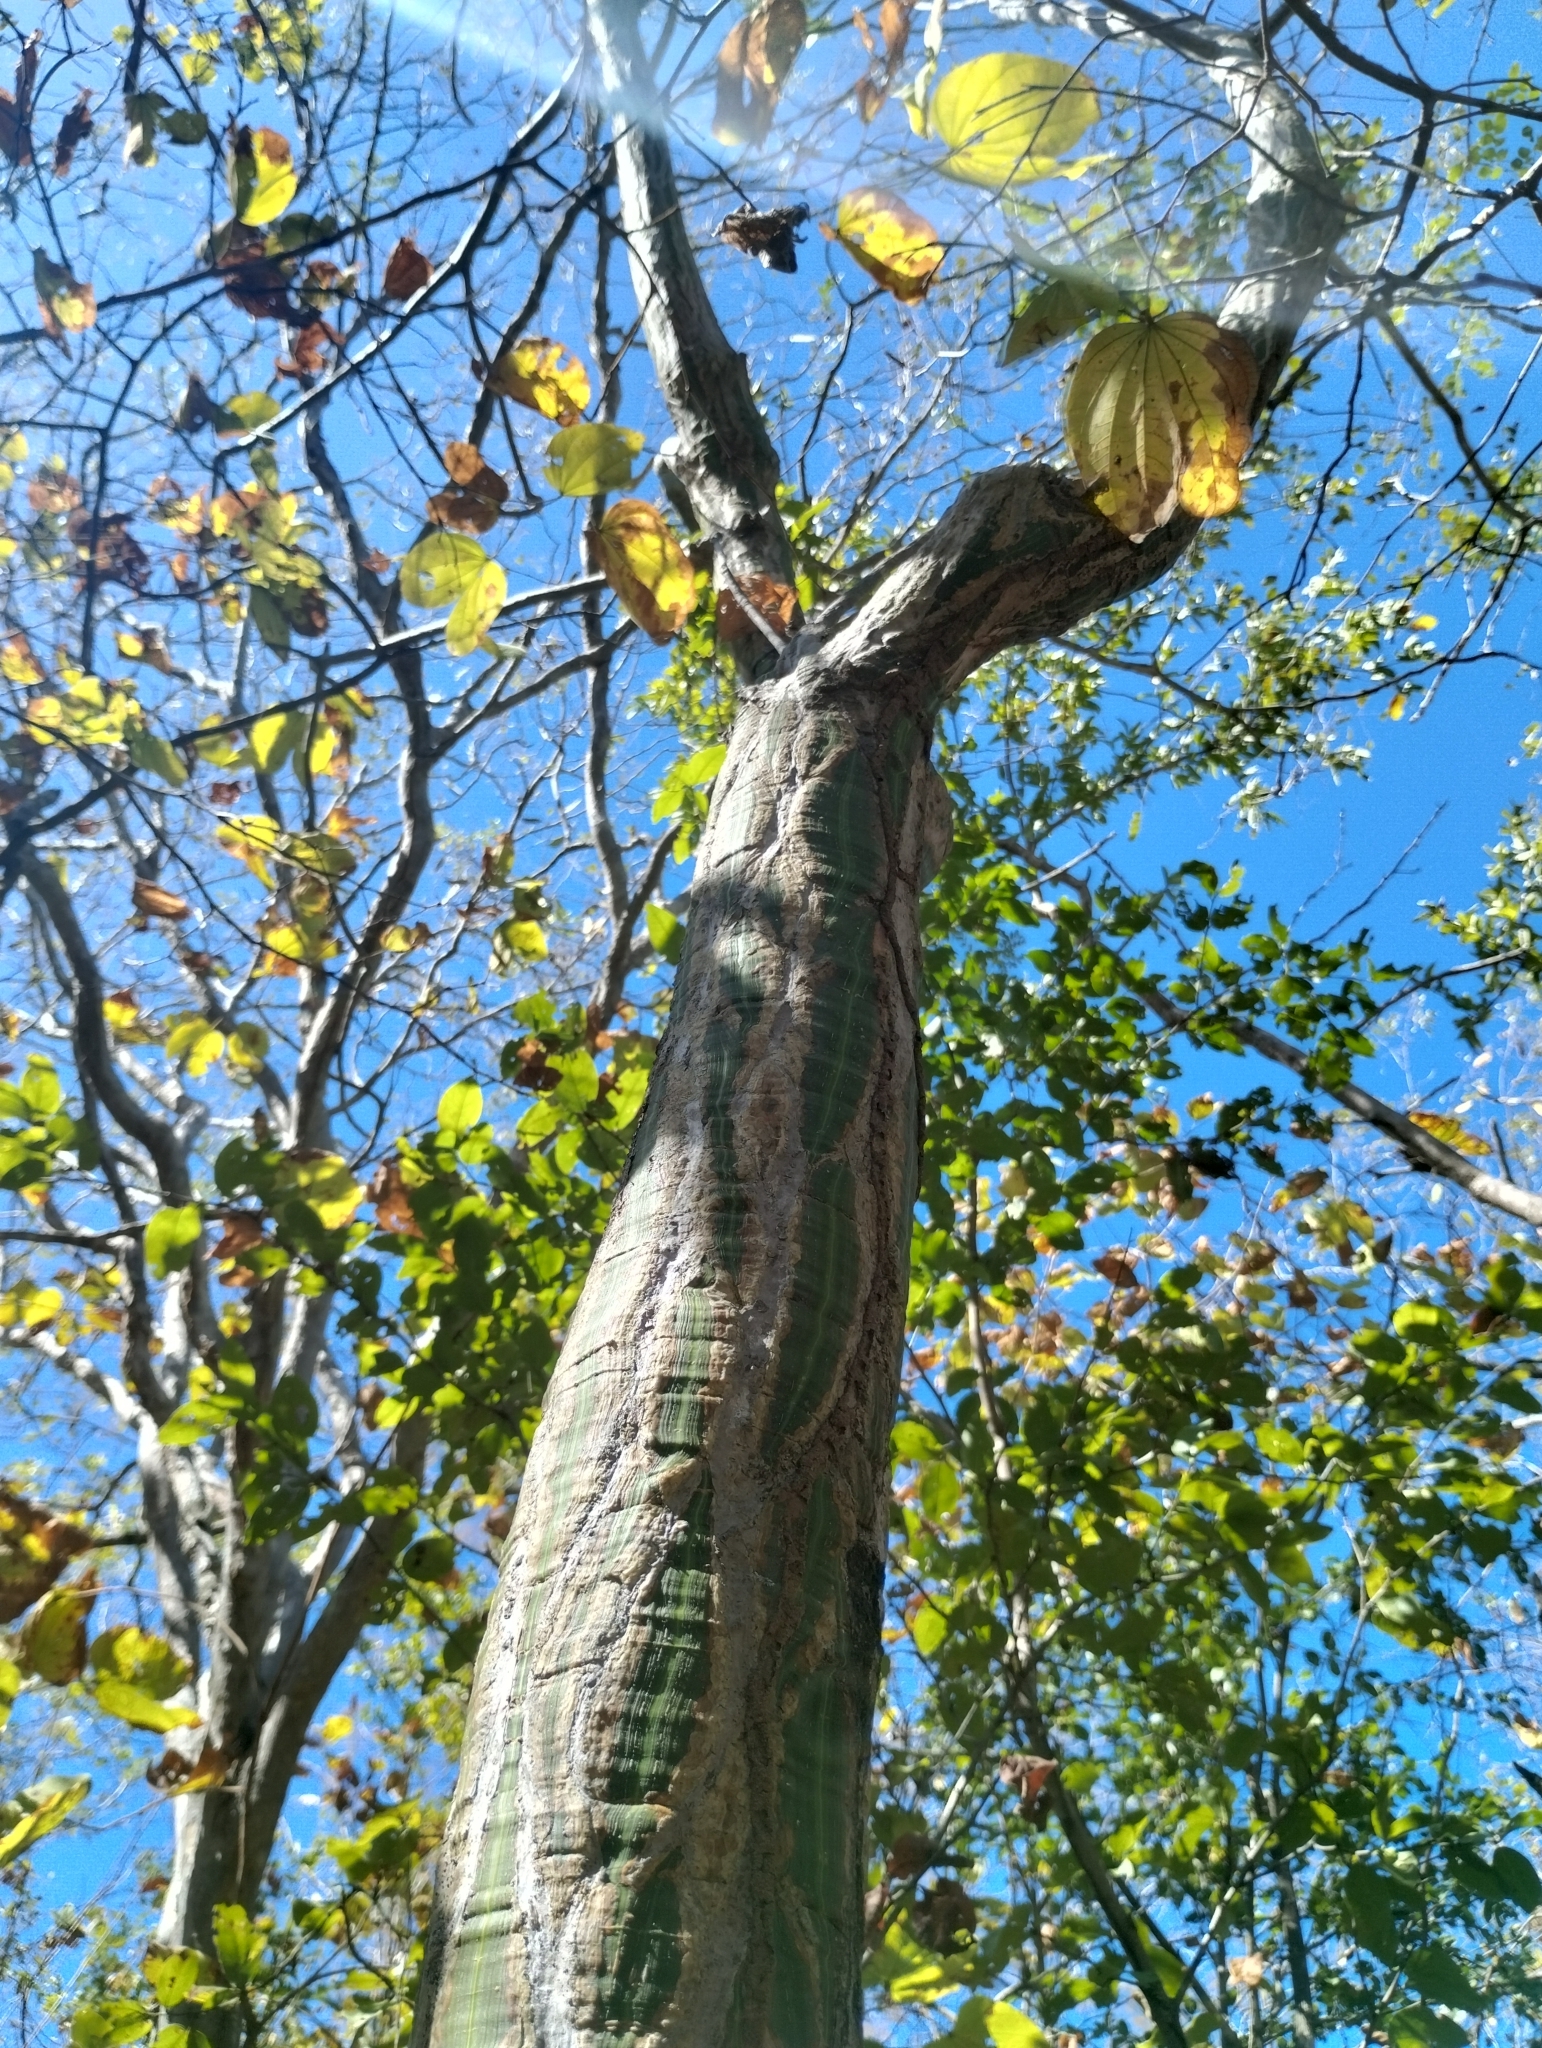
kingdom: Plantae
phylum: Tracheophyta
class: Magnoliopsida
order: Malvales
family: Malvaceae
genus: Pseudobombax
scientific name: Pseudobombax
